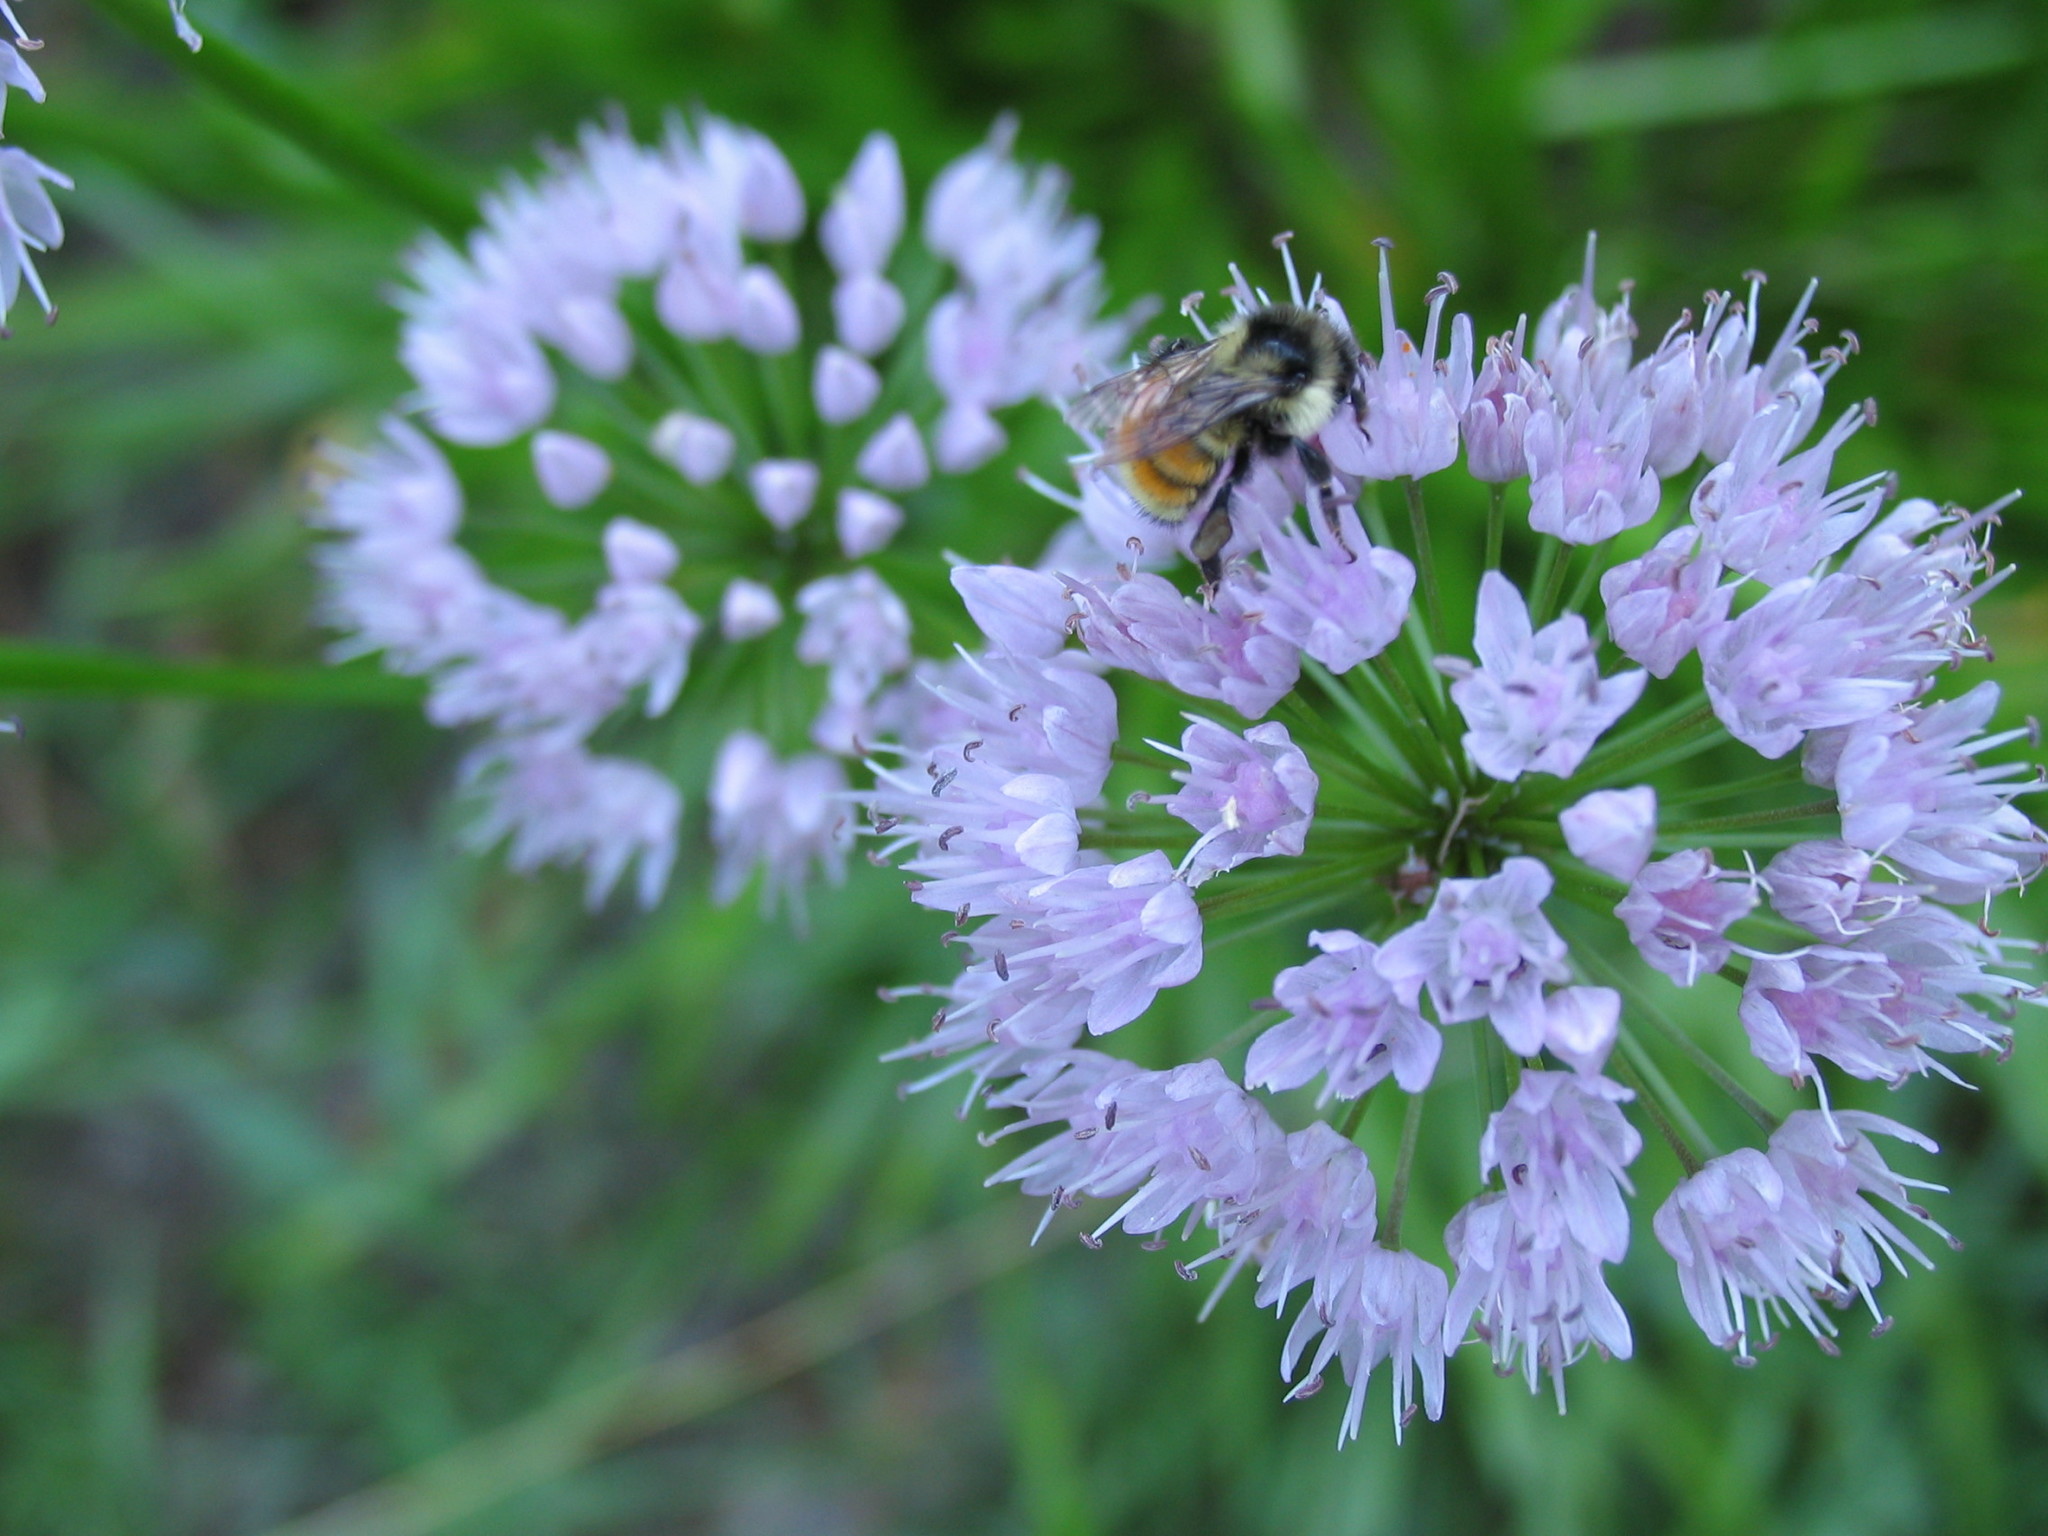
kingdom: Animalia
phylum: Arthropoda
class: Insecta
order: Hymenoptera
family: Apidae
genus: Bombus
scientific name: Bombus ternarius
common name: Tri-colored bumble bee
